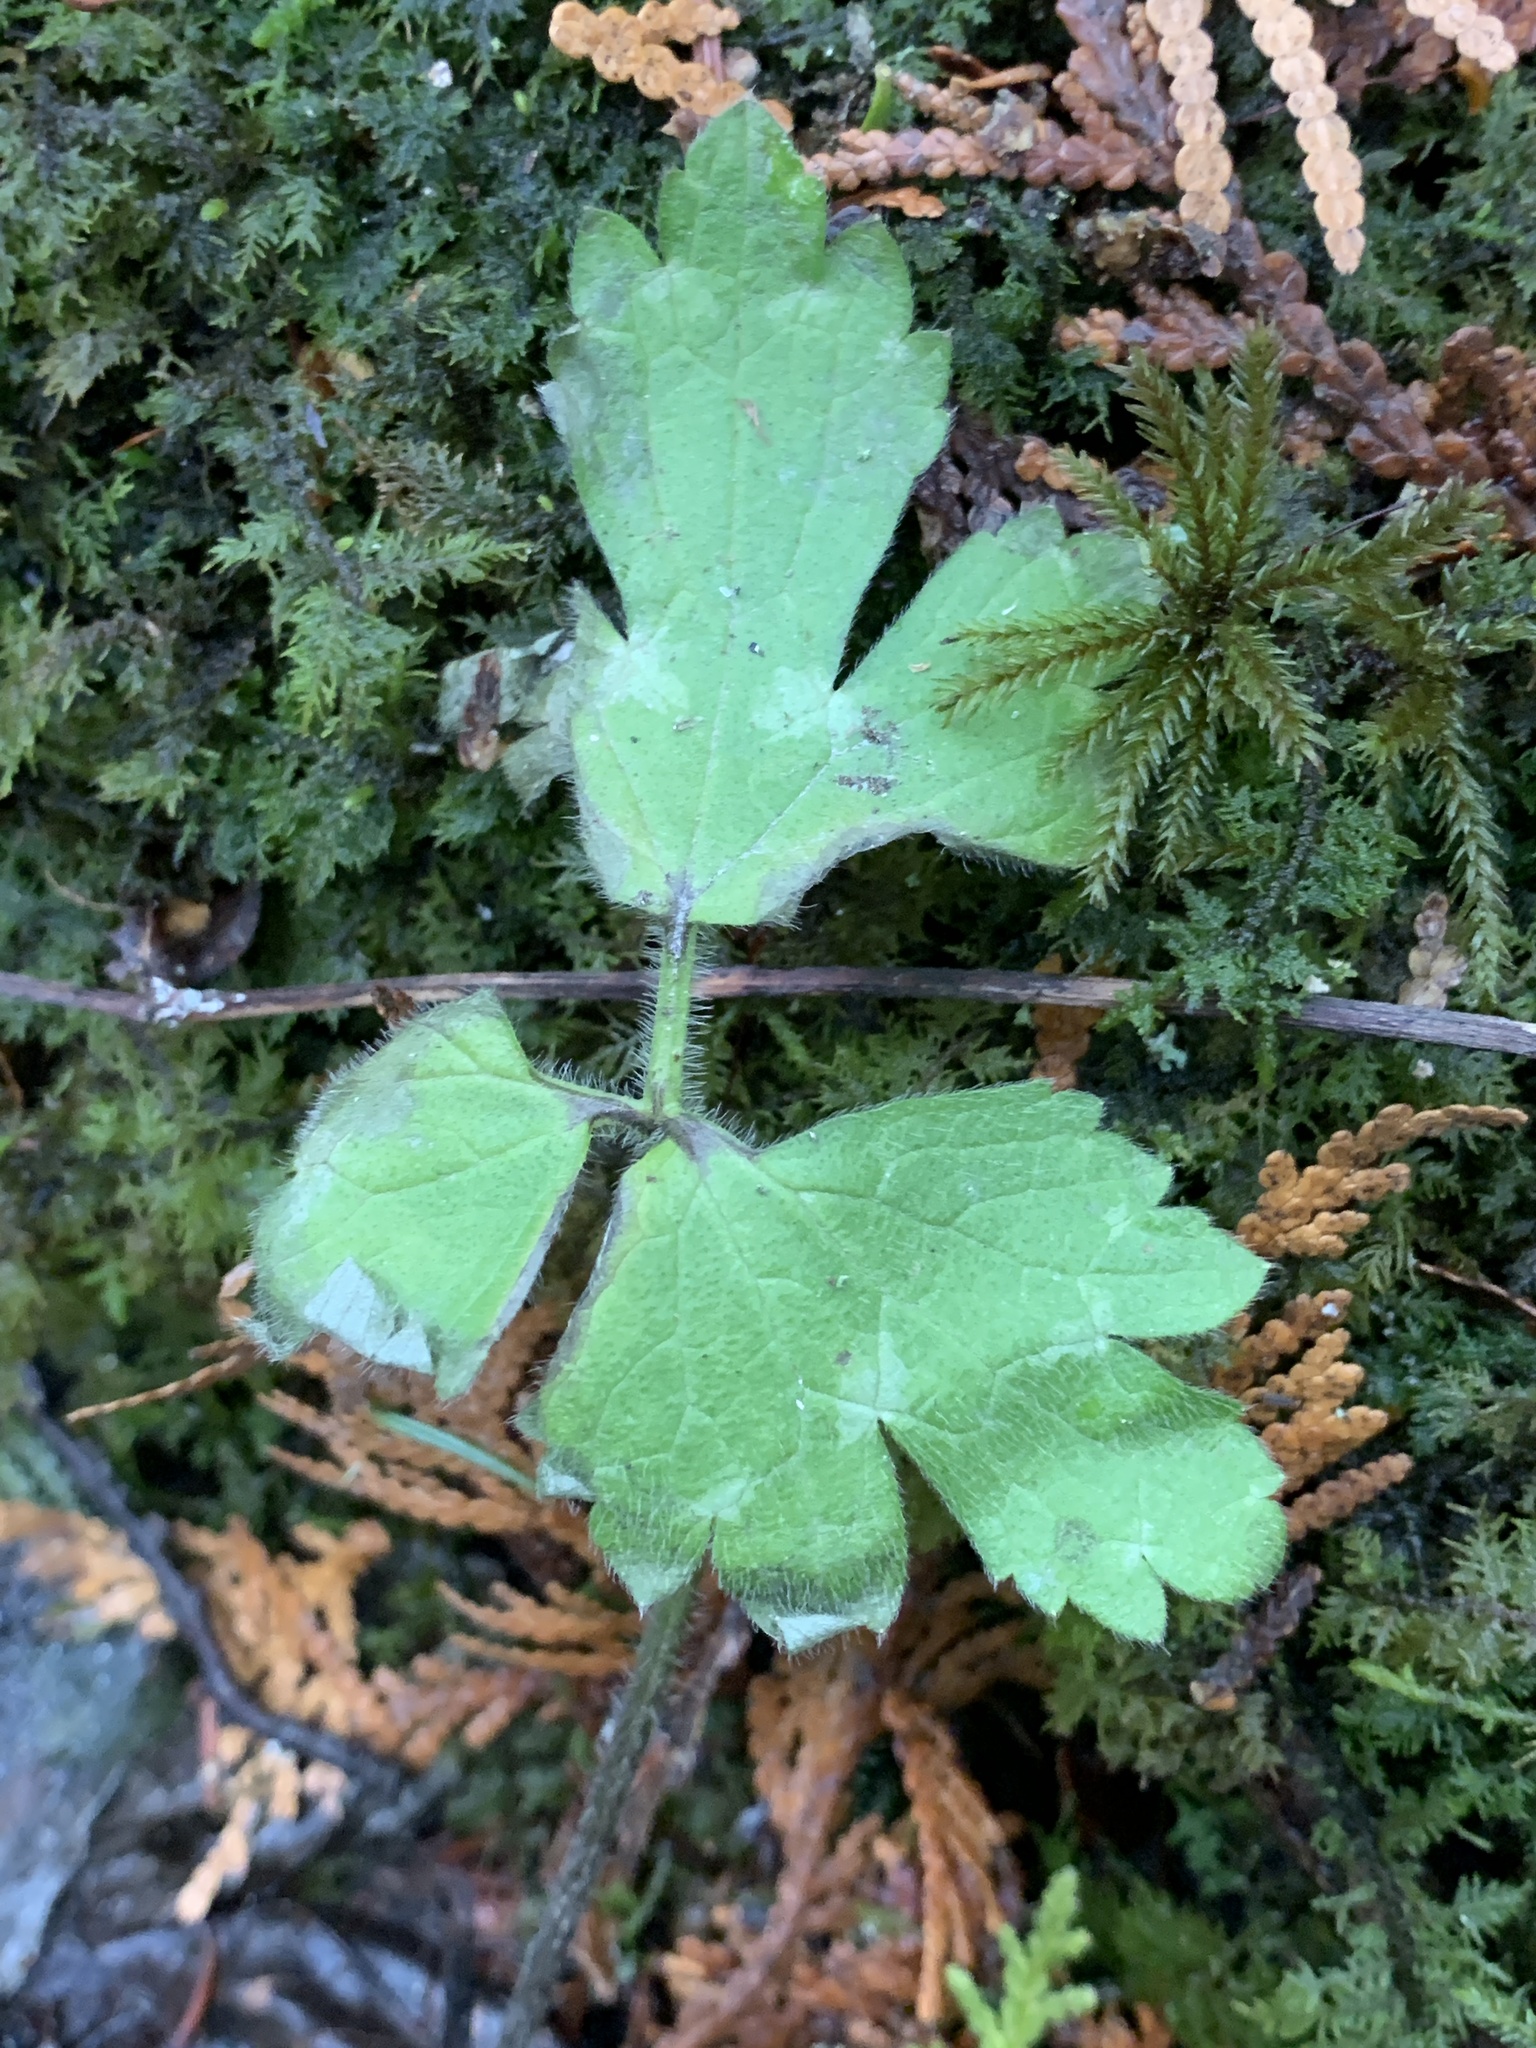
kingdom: Plantae
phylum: Tracheophyta
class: Magnoliopsida
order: Ranunculales
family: Ranunculaceae
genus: Ranunculus
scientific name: Ranunculus repens
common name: Creeping buttercup
